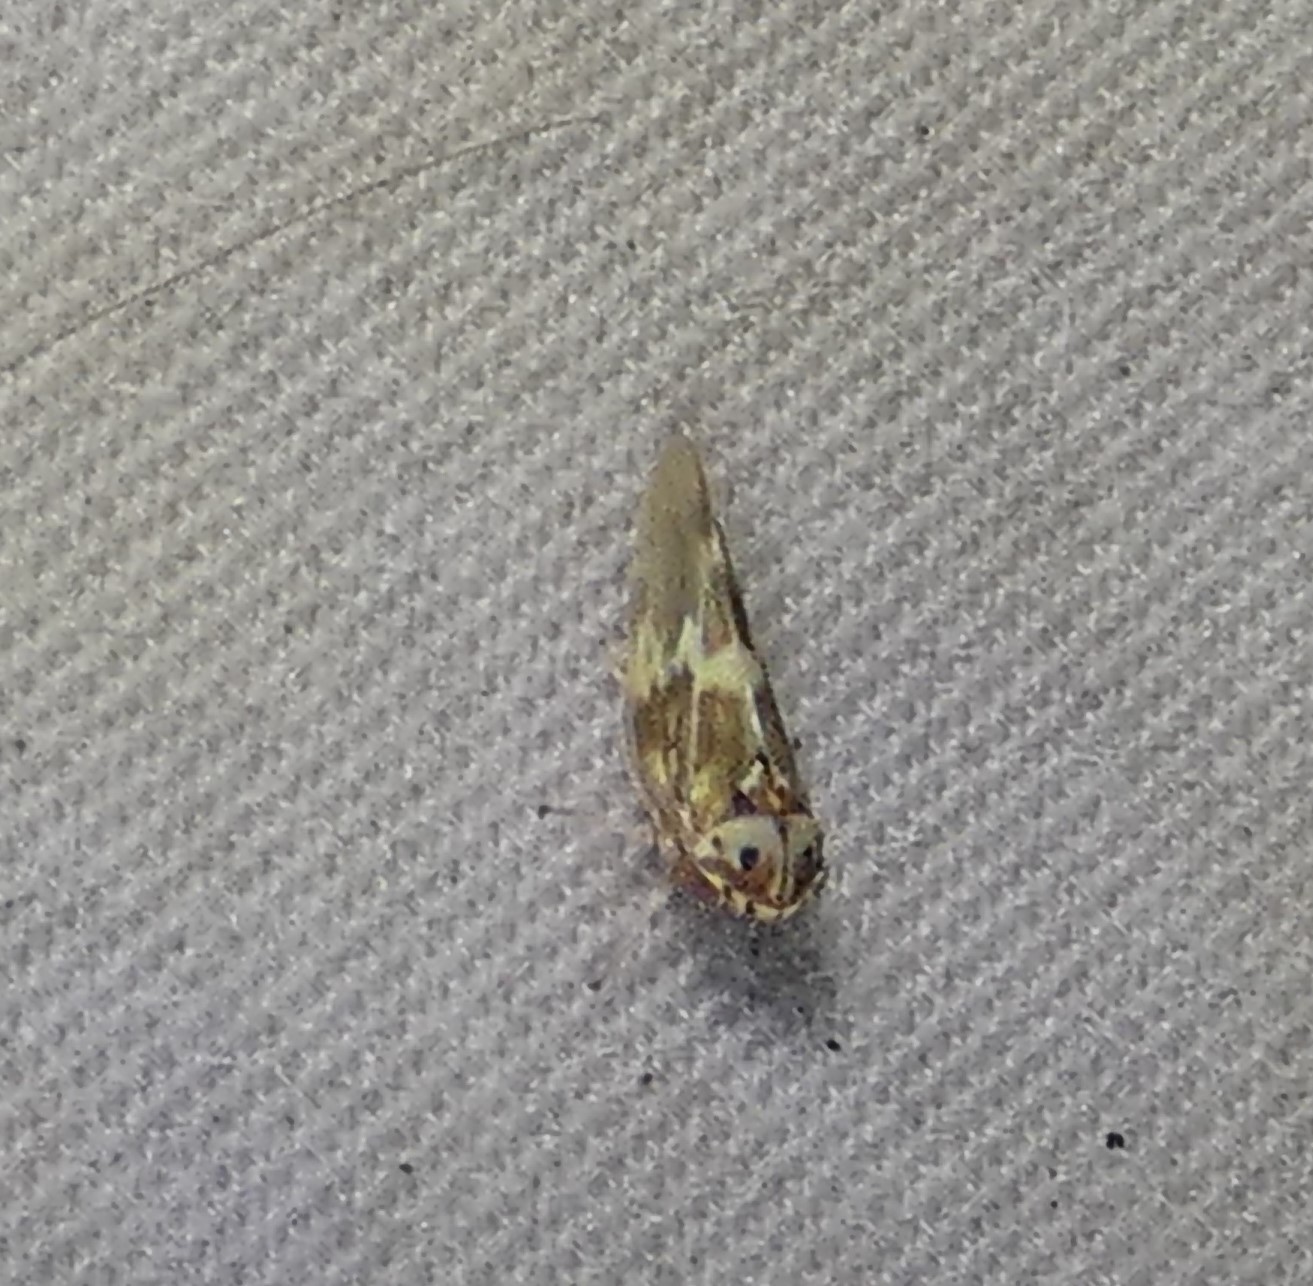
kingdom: Animalia
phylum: Arthropoda
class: Insecta
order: Hemiptera
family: Cicadellidae
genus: Agalliopsis
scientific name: Agalliopsis cervina
